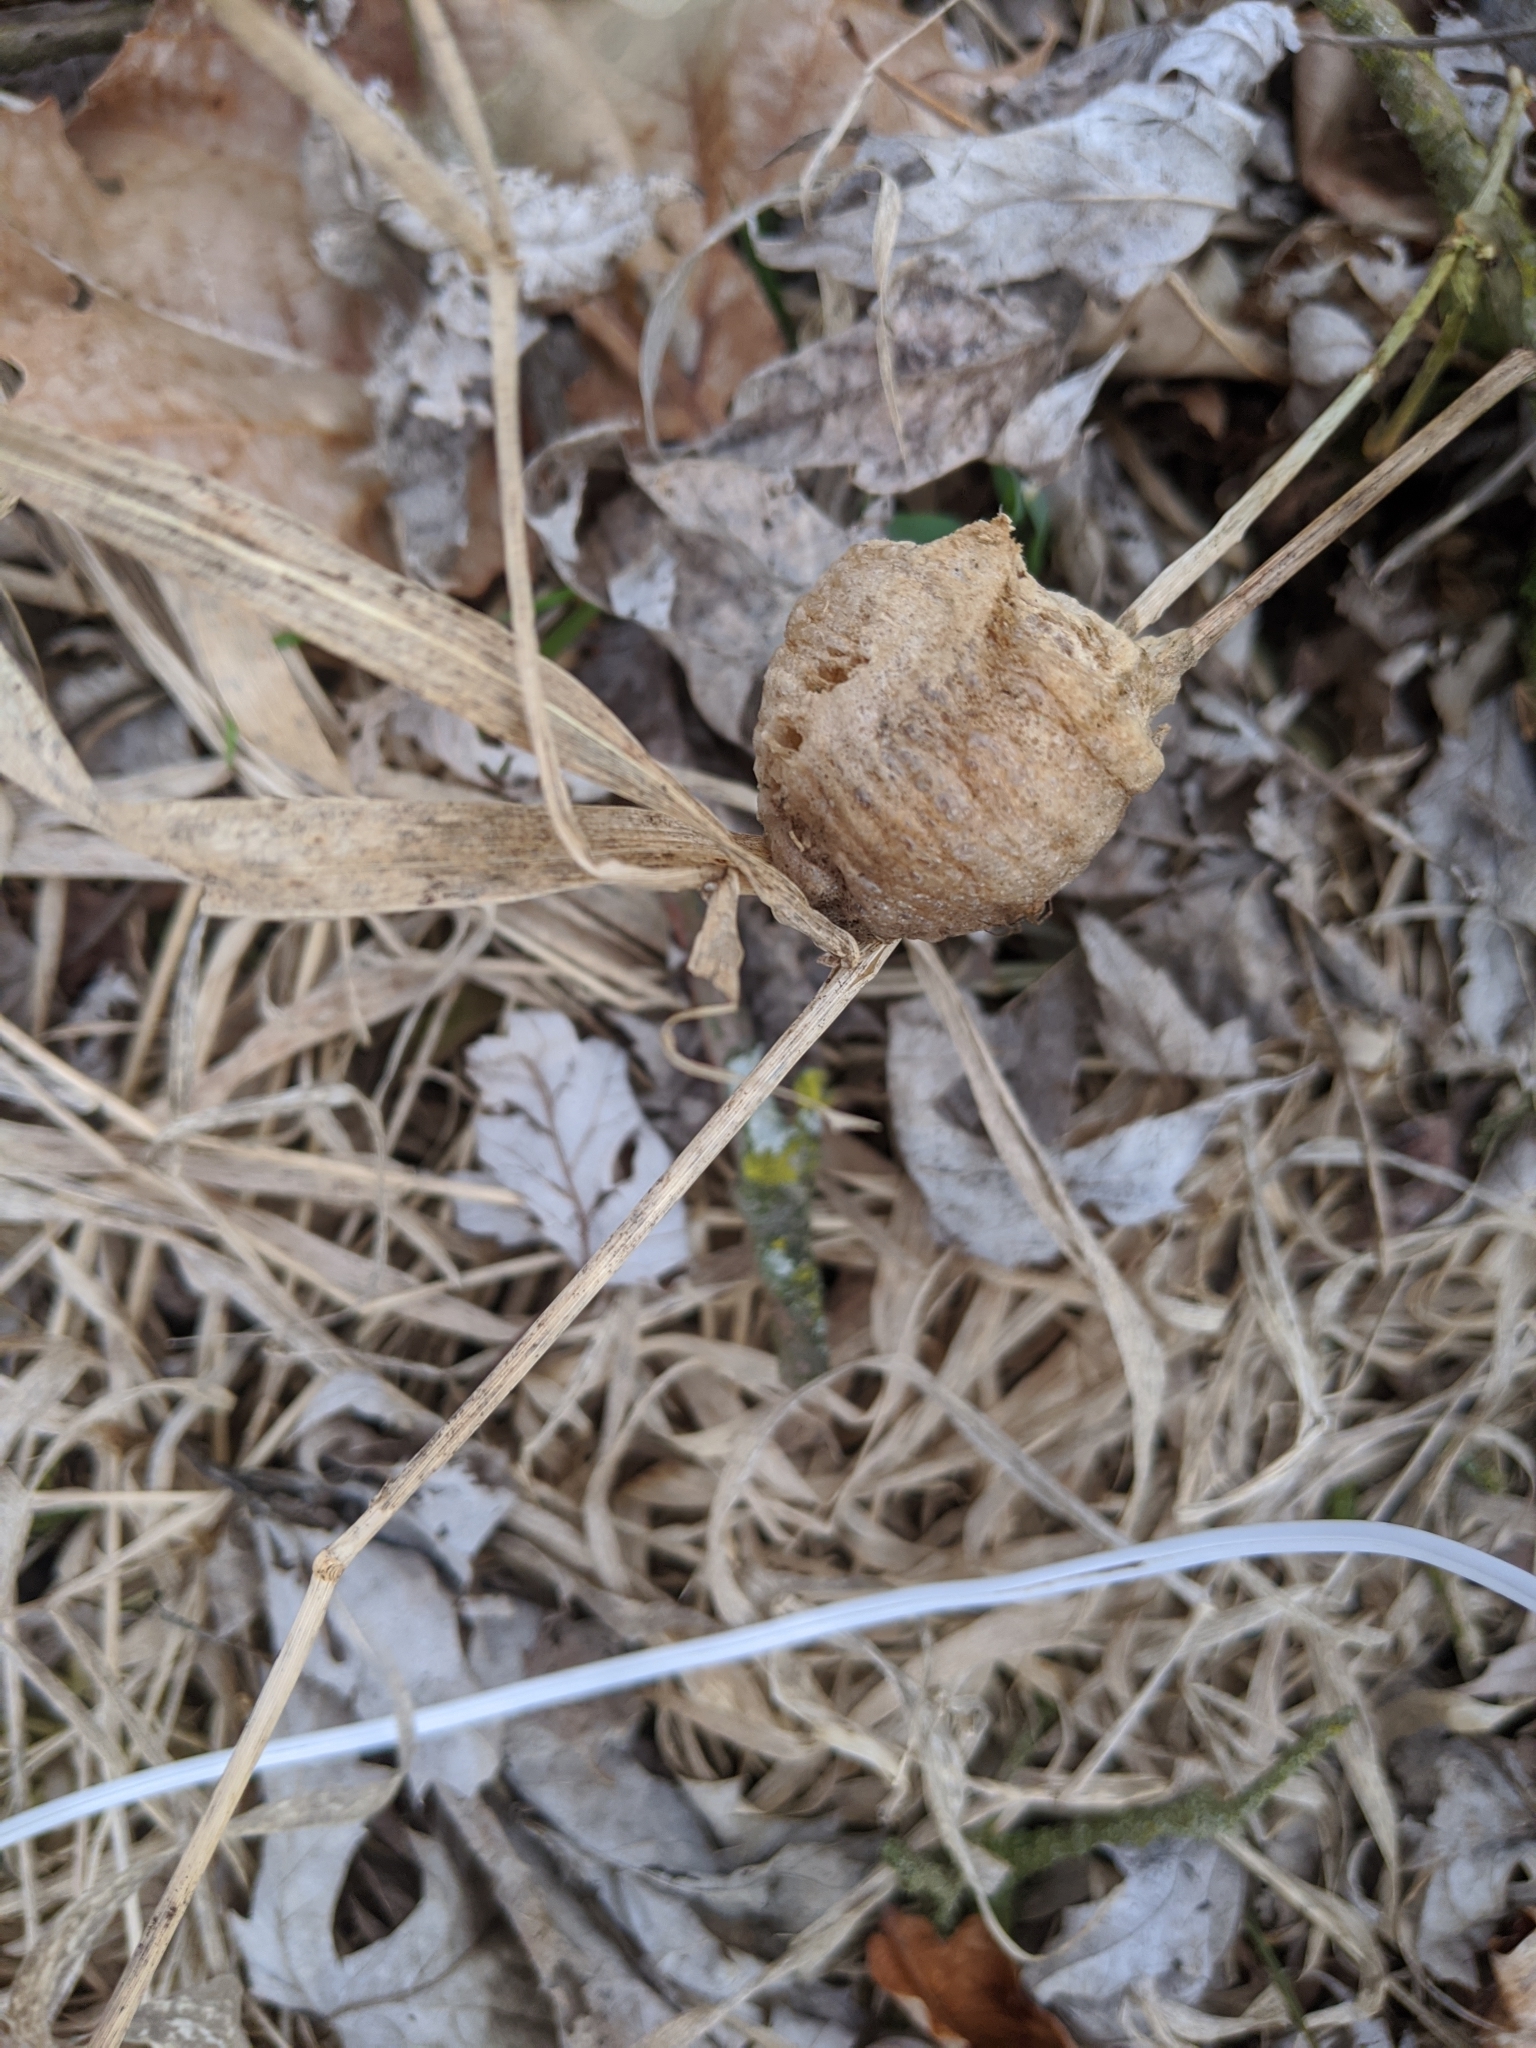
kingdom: Animalia
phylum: Arthropoda
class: Insecta
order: Mantodea
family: Mantidae
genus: Tenodera
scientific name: Tenodera sinensis
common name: Chinese mantis
